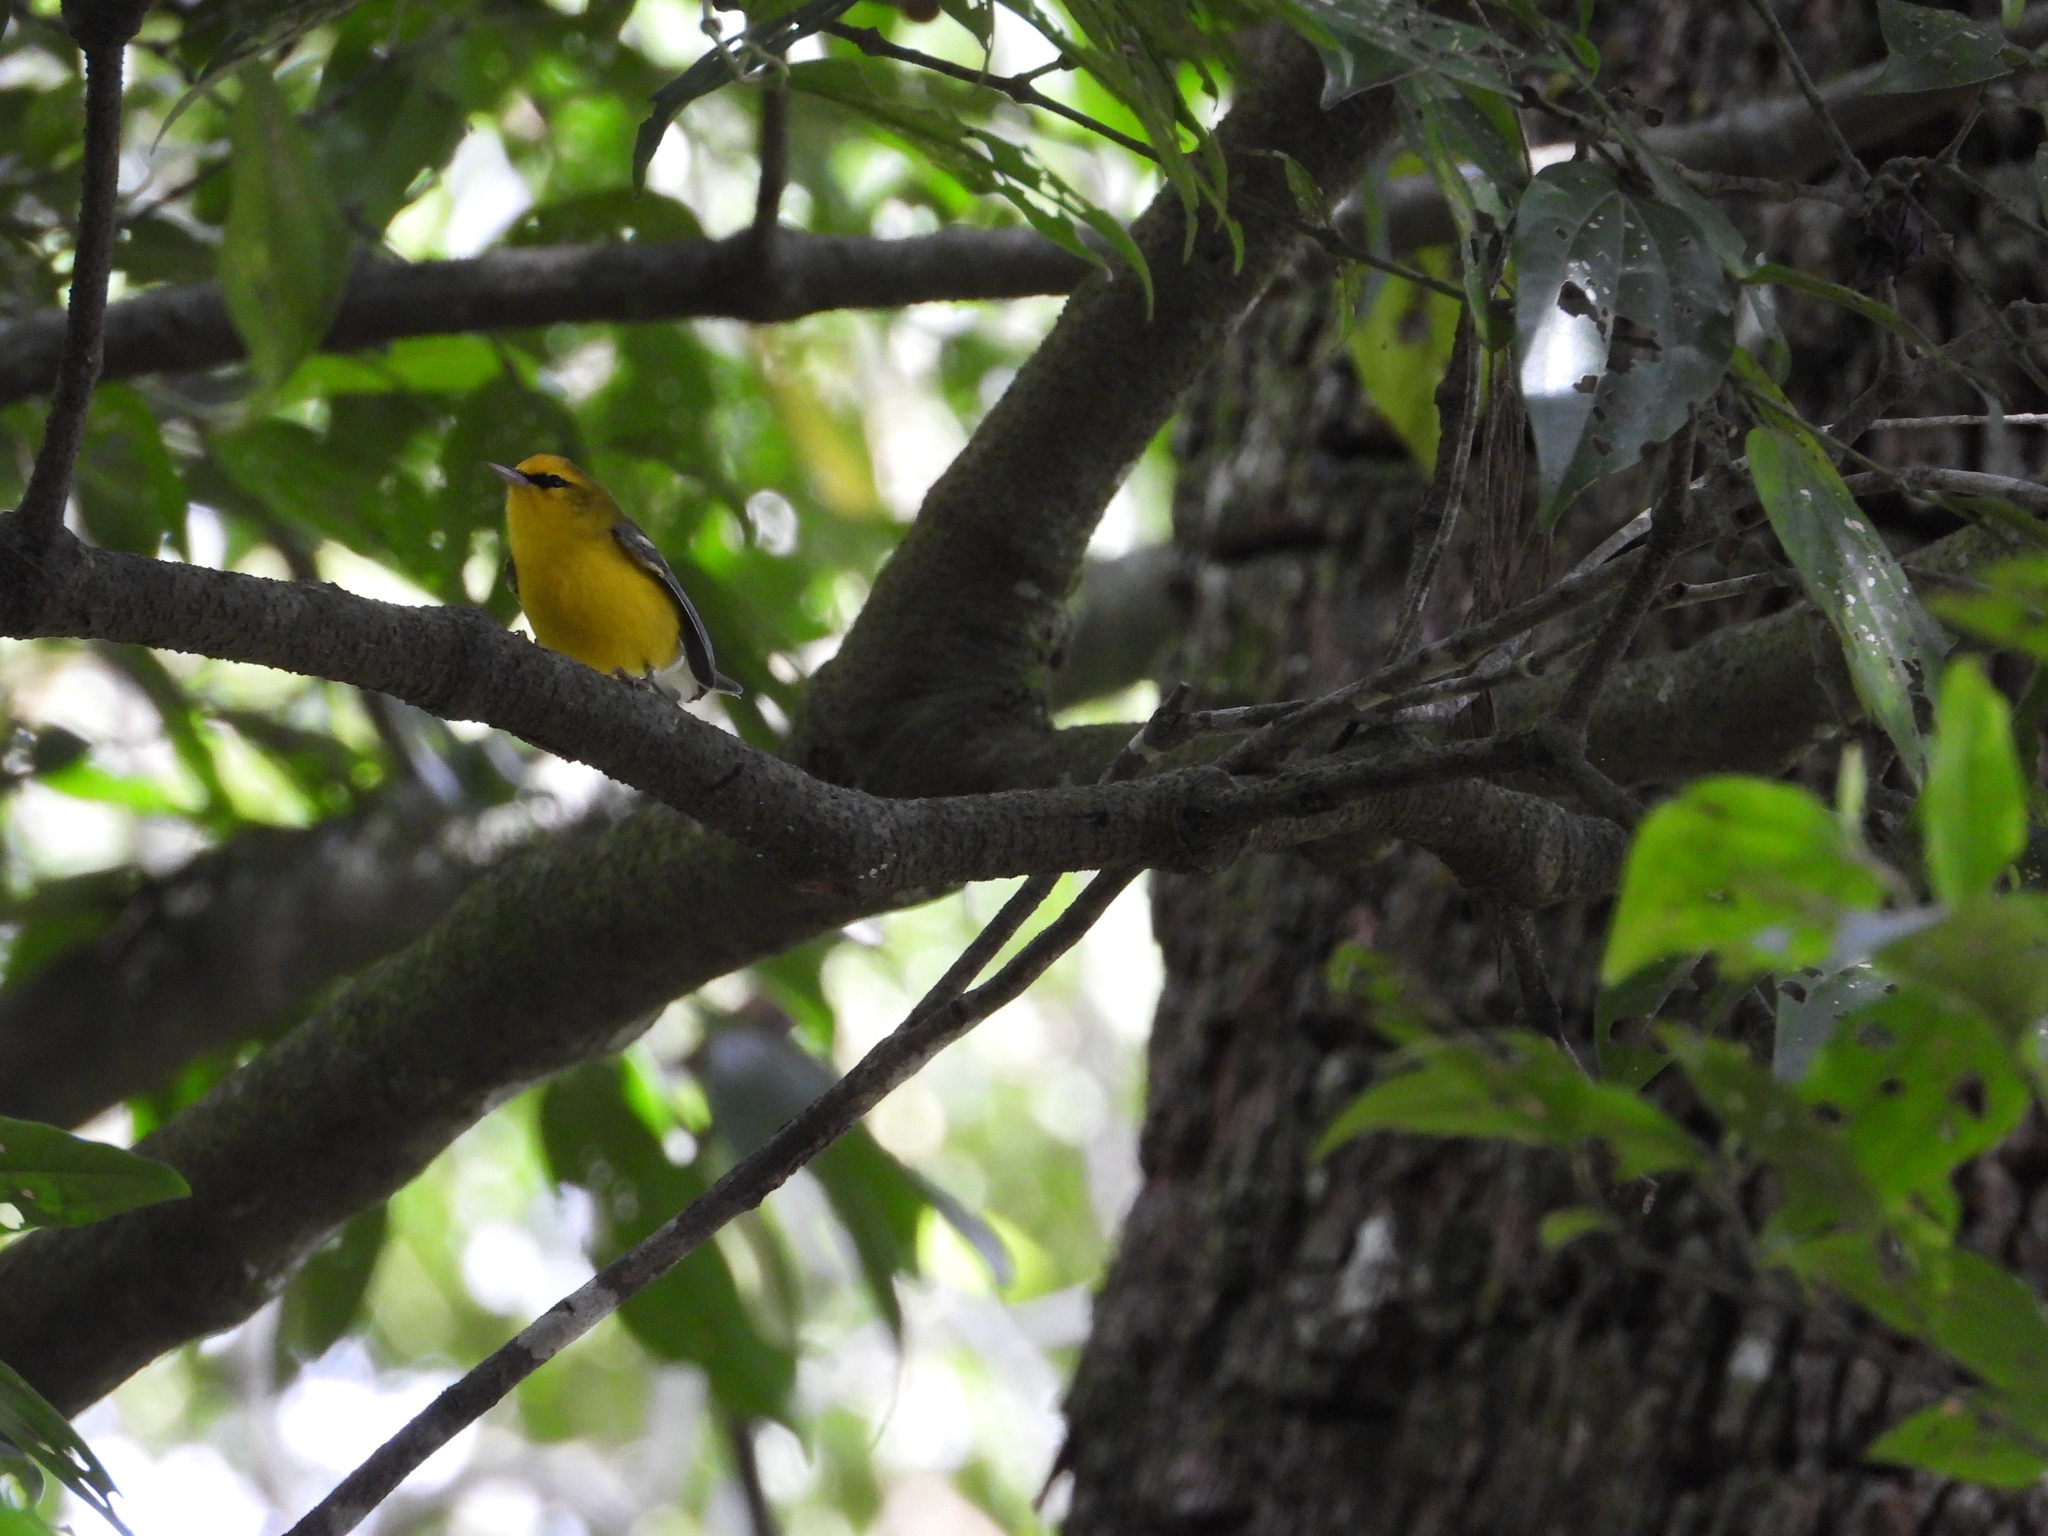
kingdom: Animalia
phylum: Chordata
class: Aves
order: Passeriformes
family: Parulidae
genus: Vermivora
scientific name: Vermivora cyanoptera
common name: Blue-winged warbler
